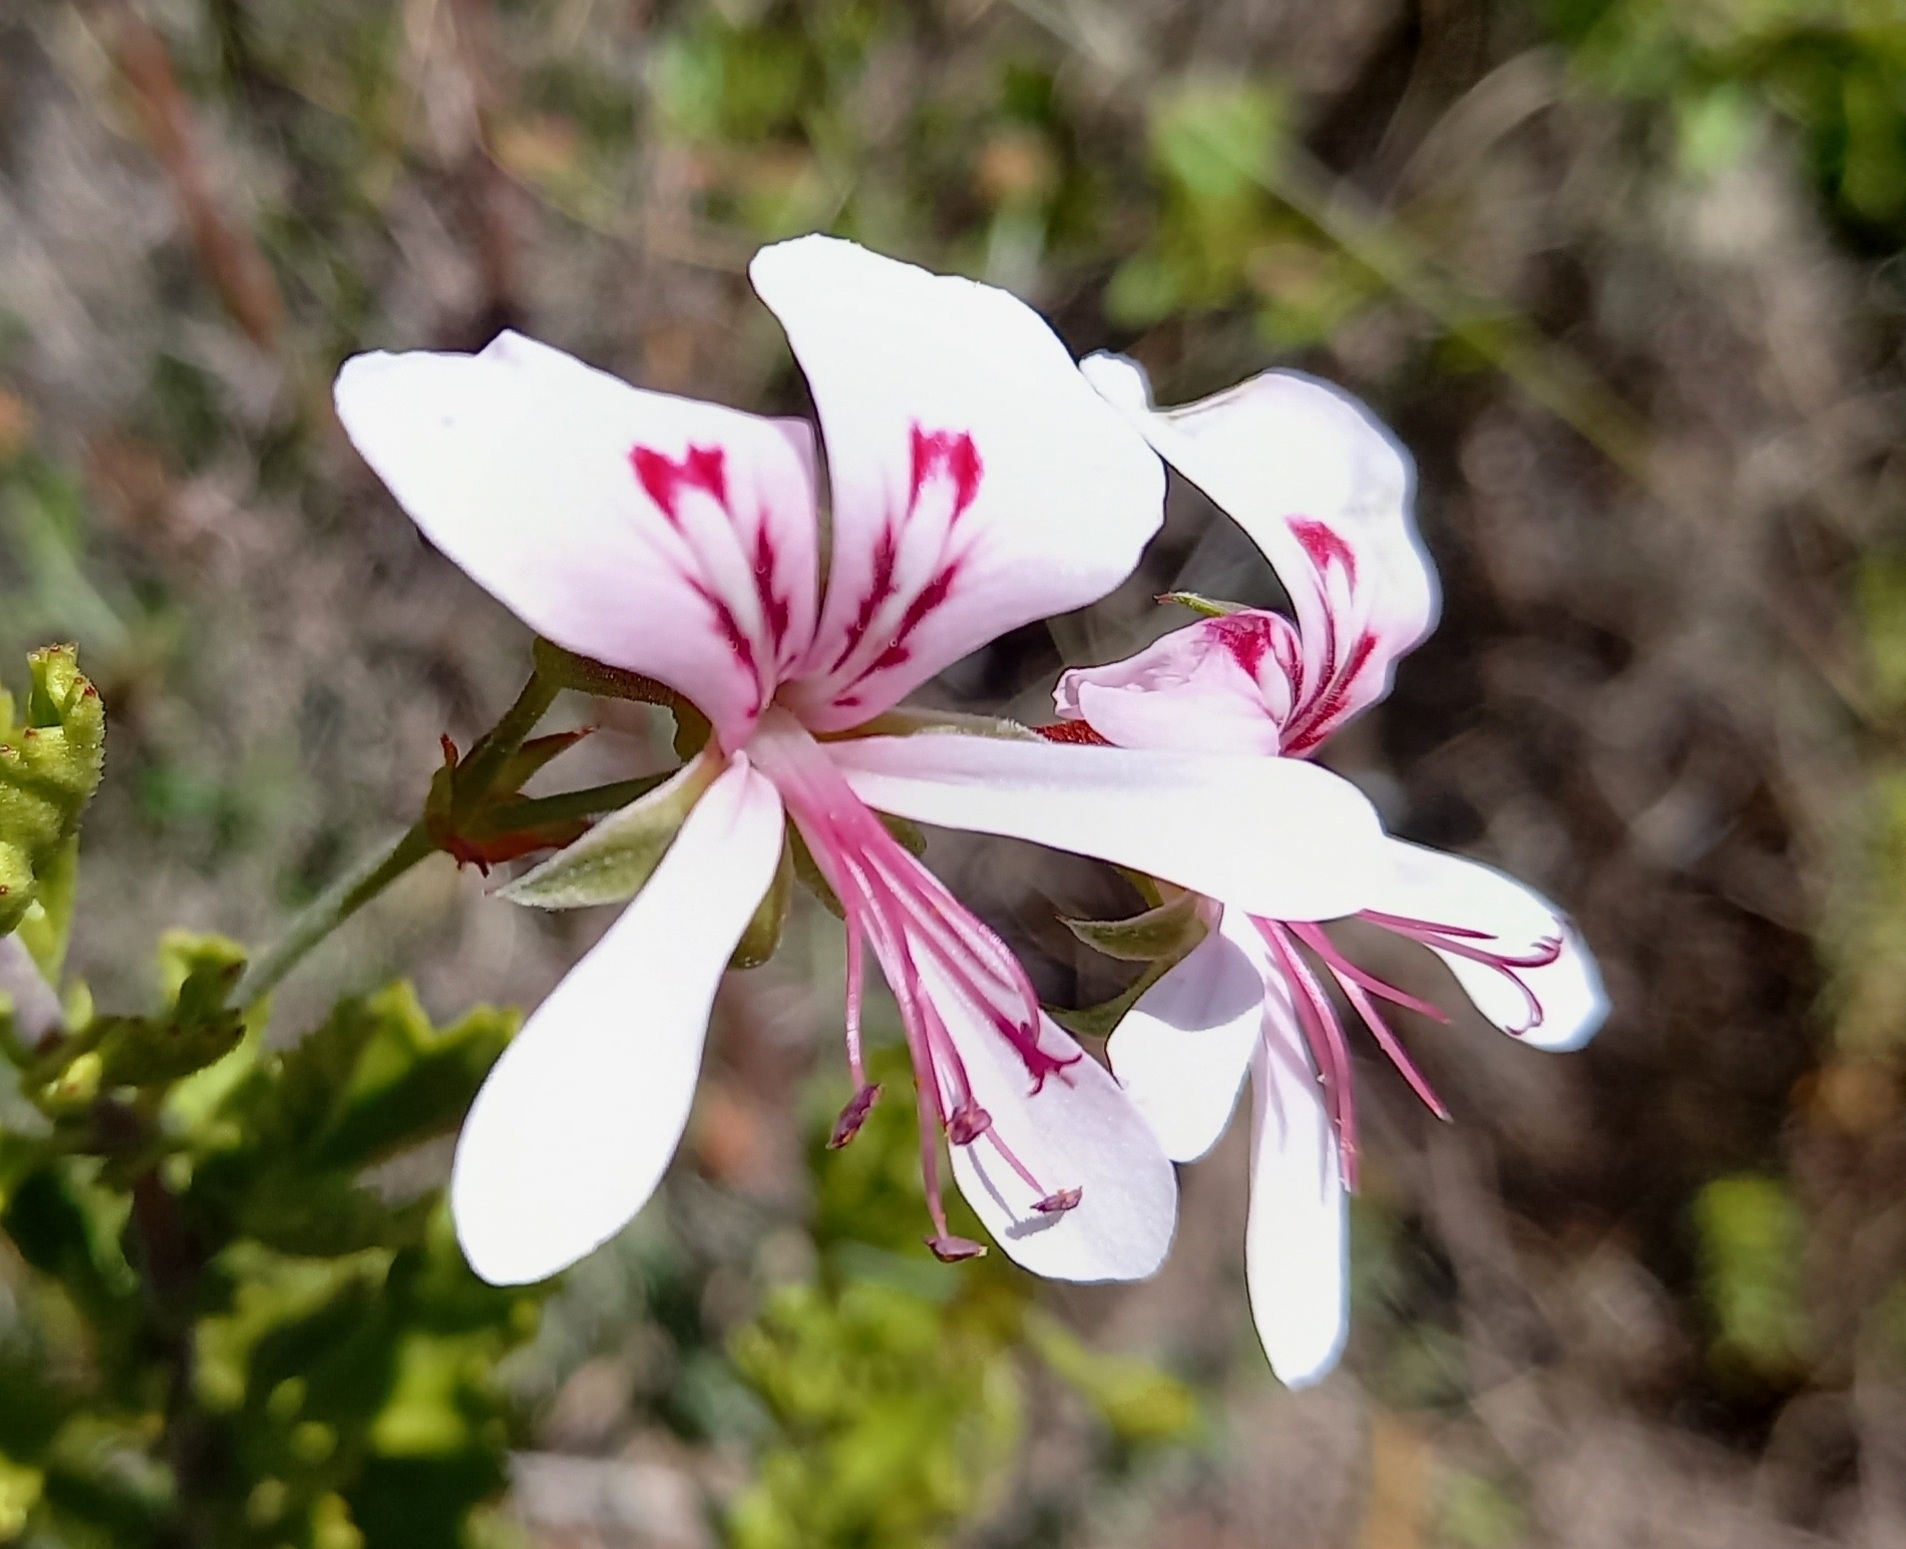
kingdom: Plantae
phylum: Tracheophyta
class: Magnoliopsida
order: Geraniales
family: Geraniaceae
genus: Pelargonium
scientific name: Pelargonium hermaniifolium
